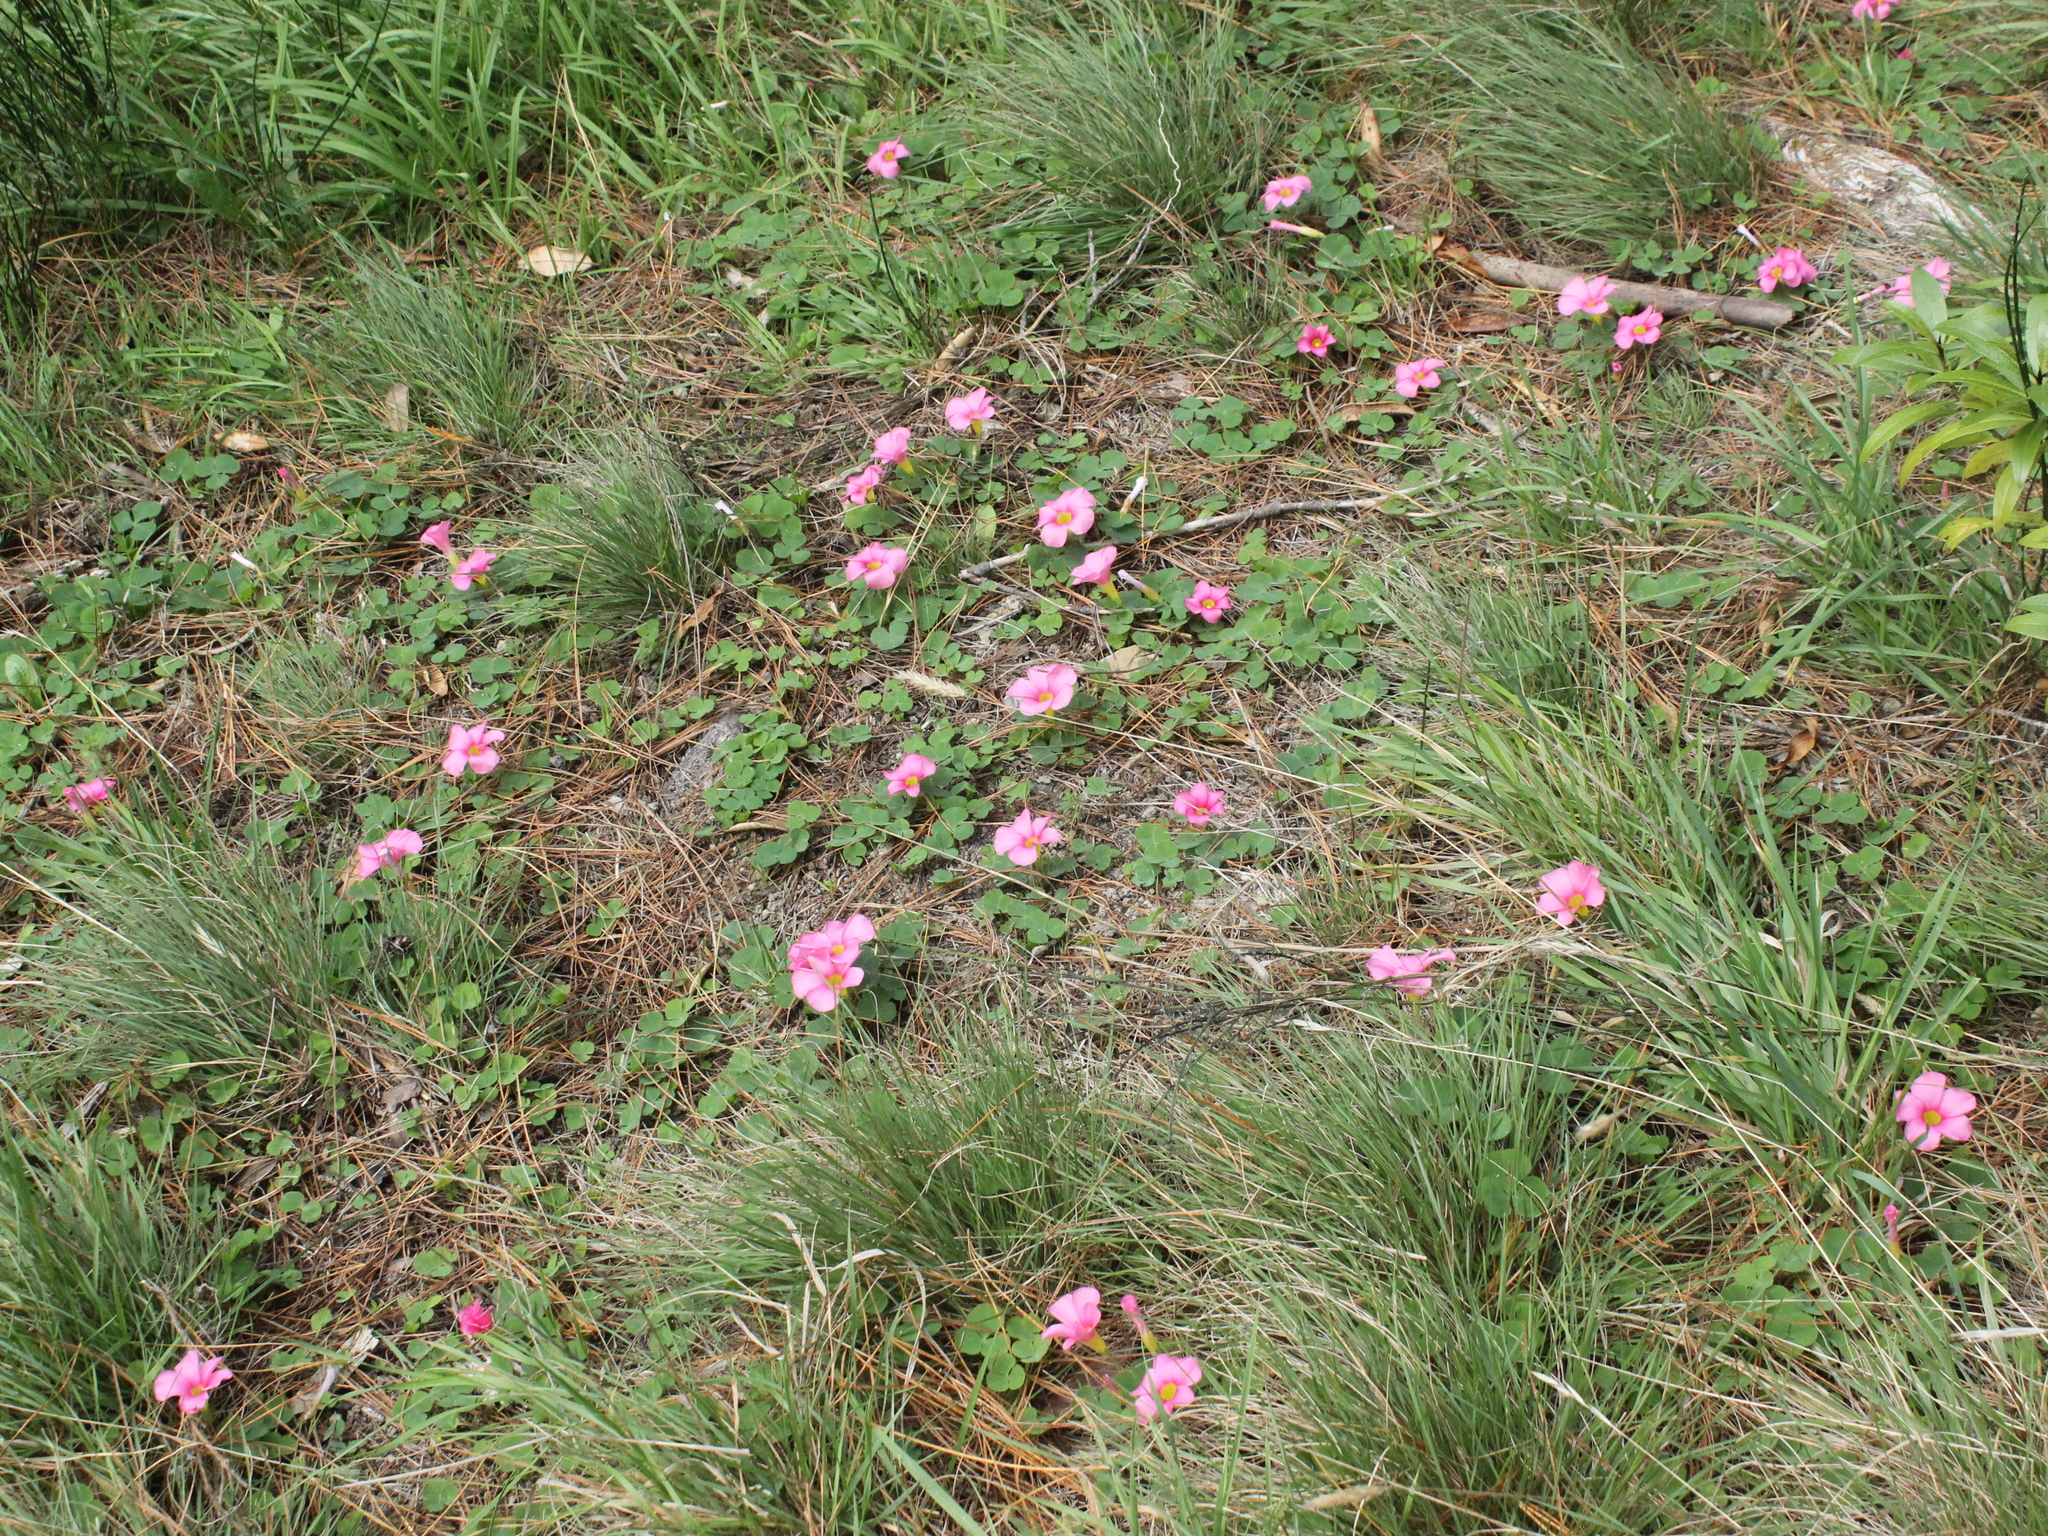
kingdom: Plantae
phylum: Tracheophyta
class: Magnoliopsida
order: Oxalidales
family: Oxalidaceae
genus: Oxalis
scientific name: Oxalis purpurea
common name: Purple woodsorrel
